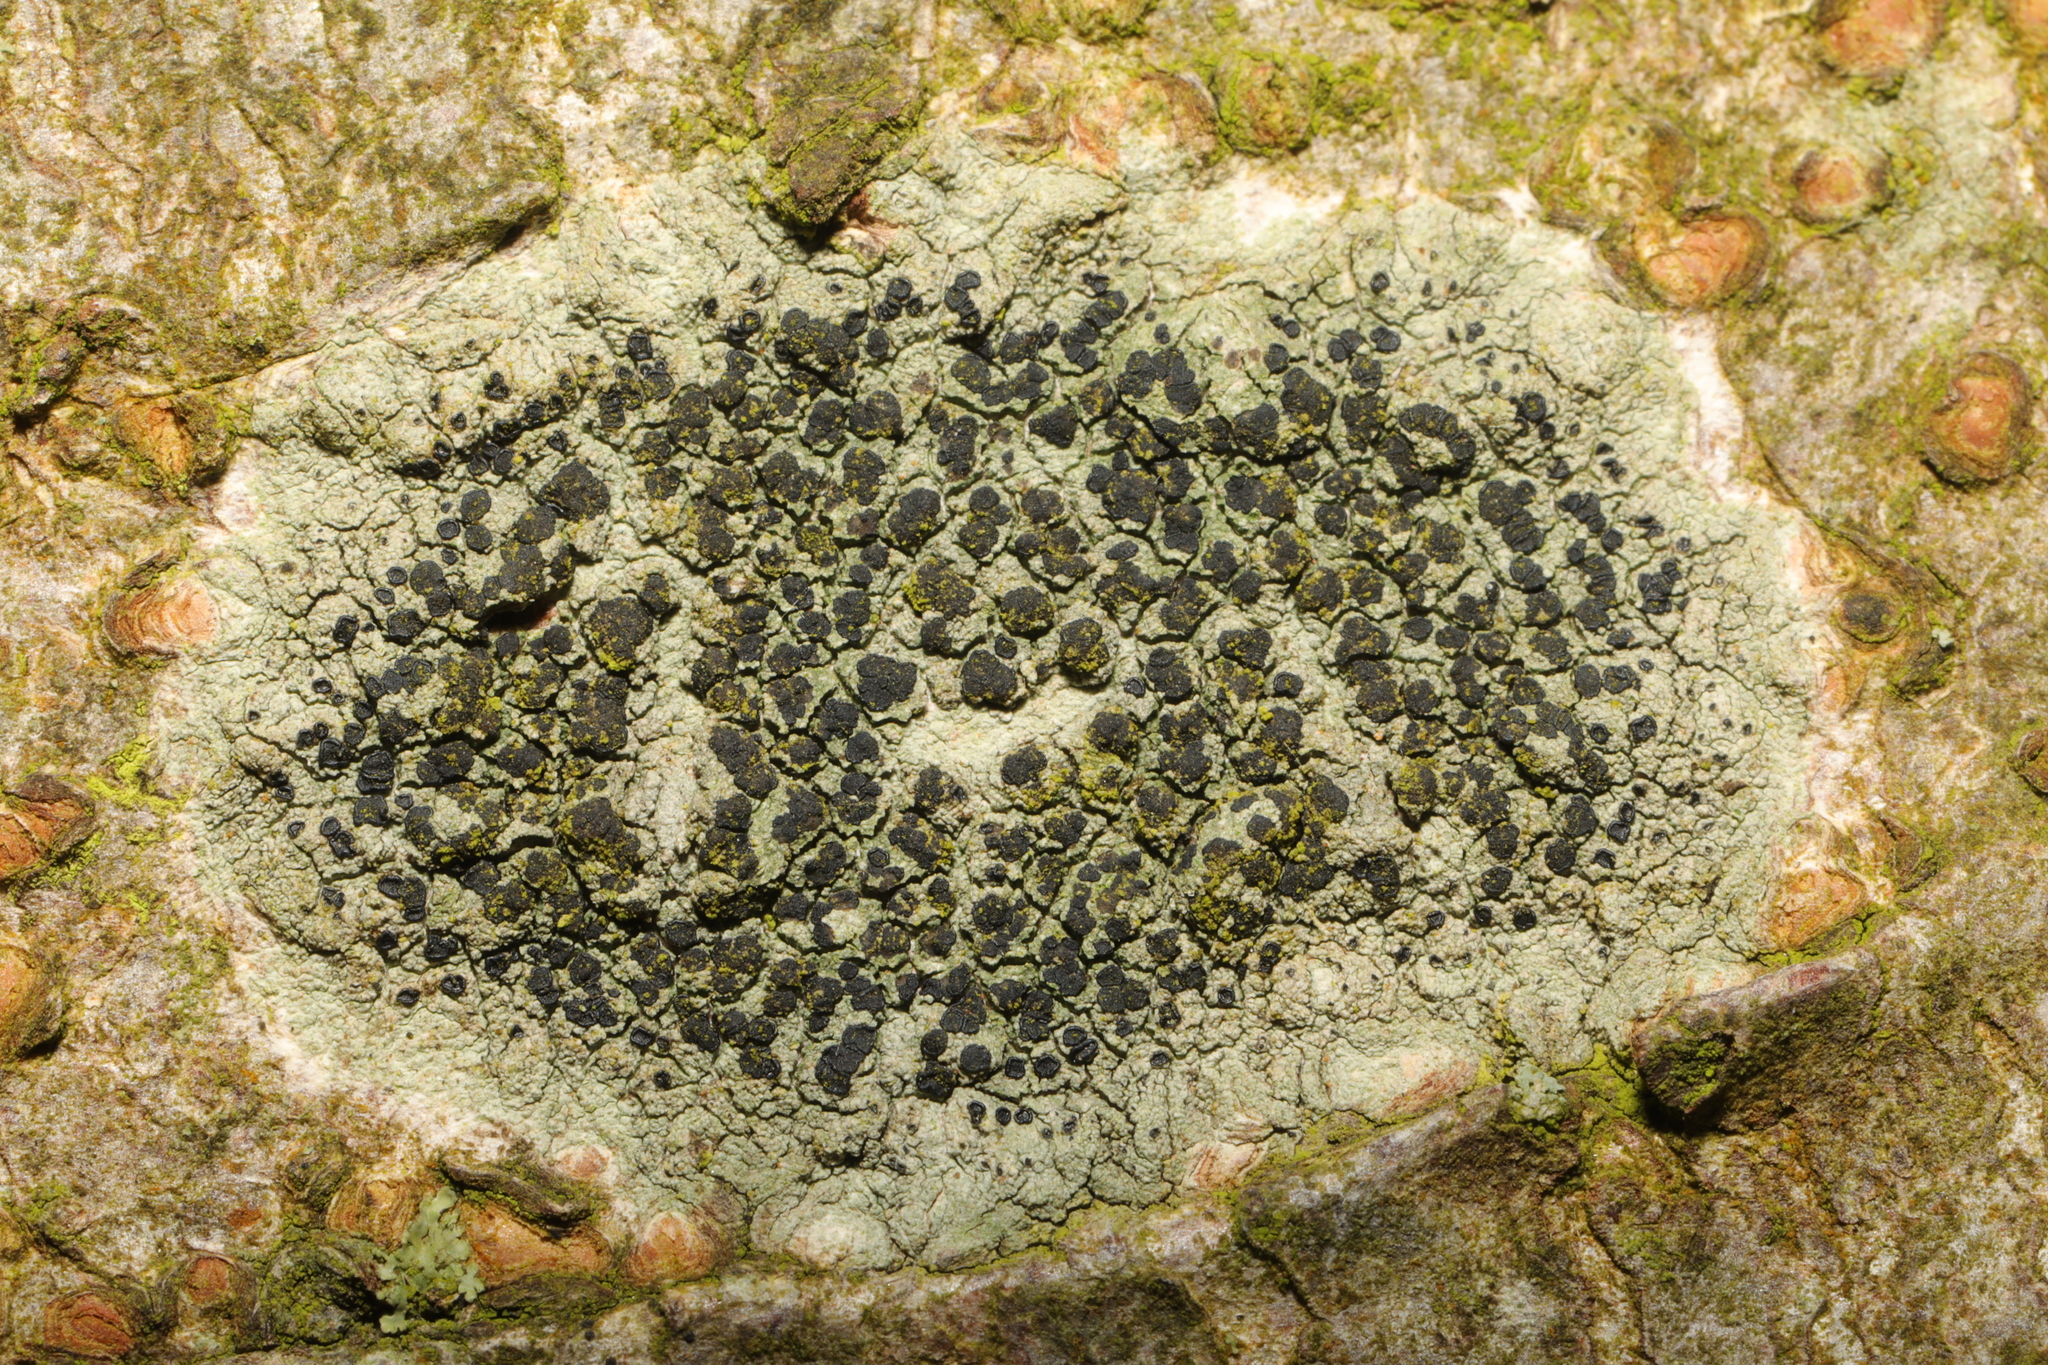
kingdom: Fungi
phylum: Ascomycota
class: Lecanoromycetes
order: Lecanorales
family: Lecanoraceae
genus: Lecidella
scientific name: Lecidella elaeochroma
